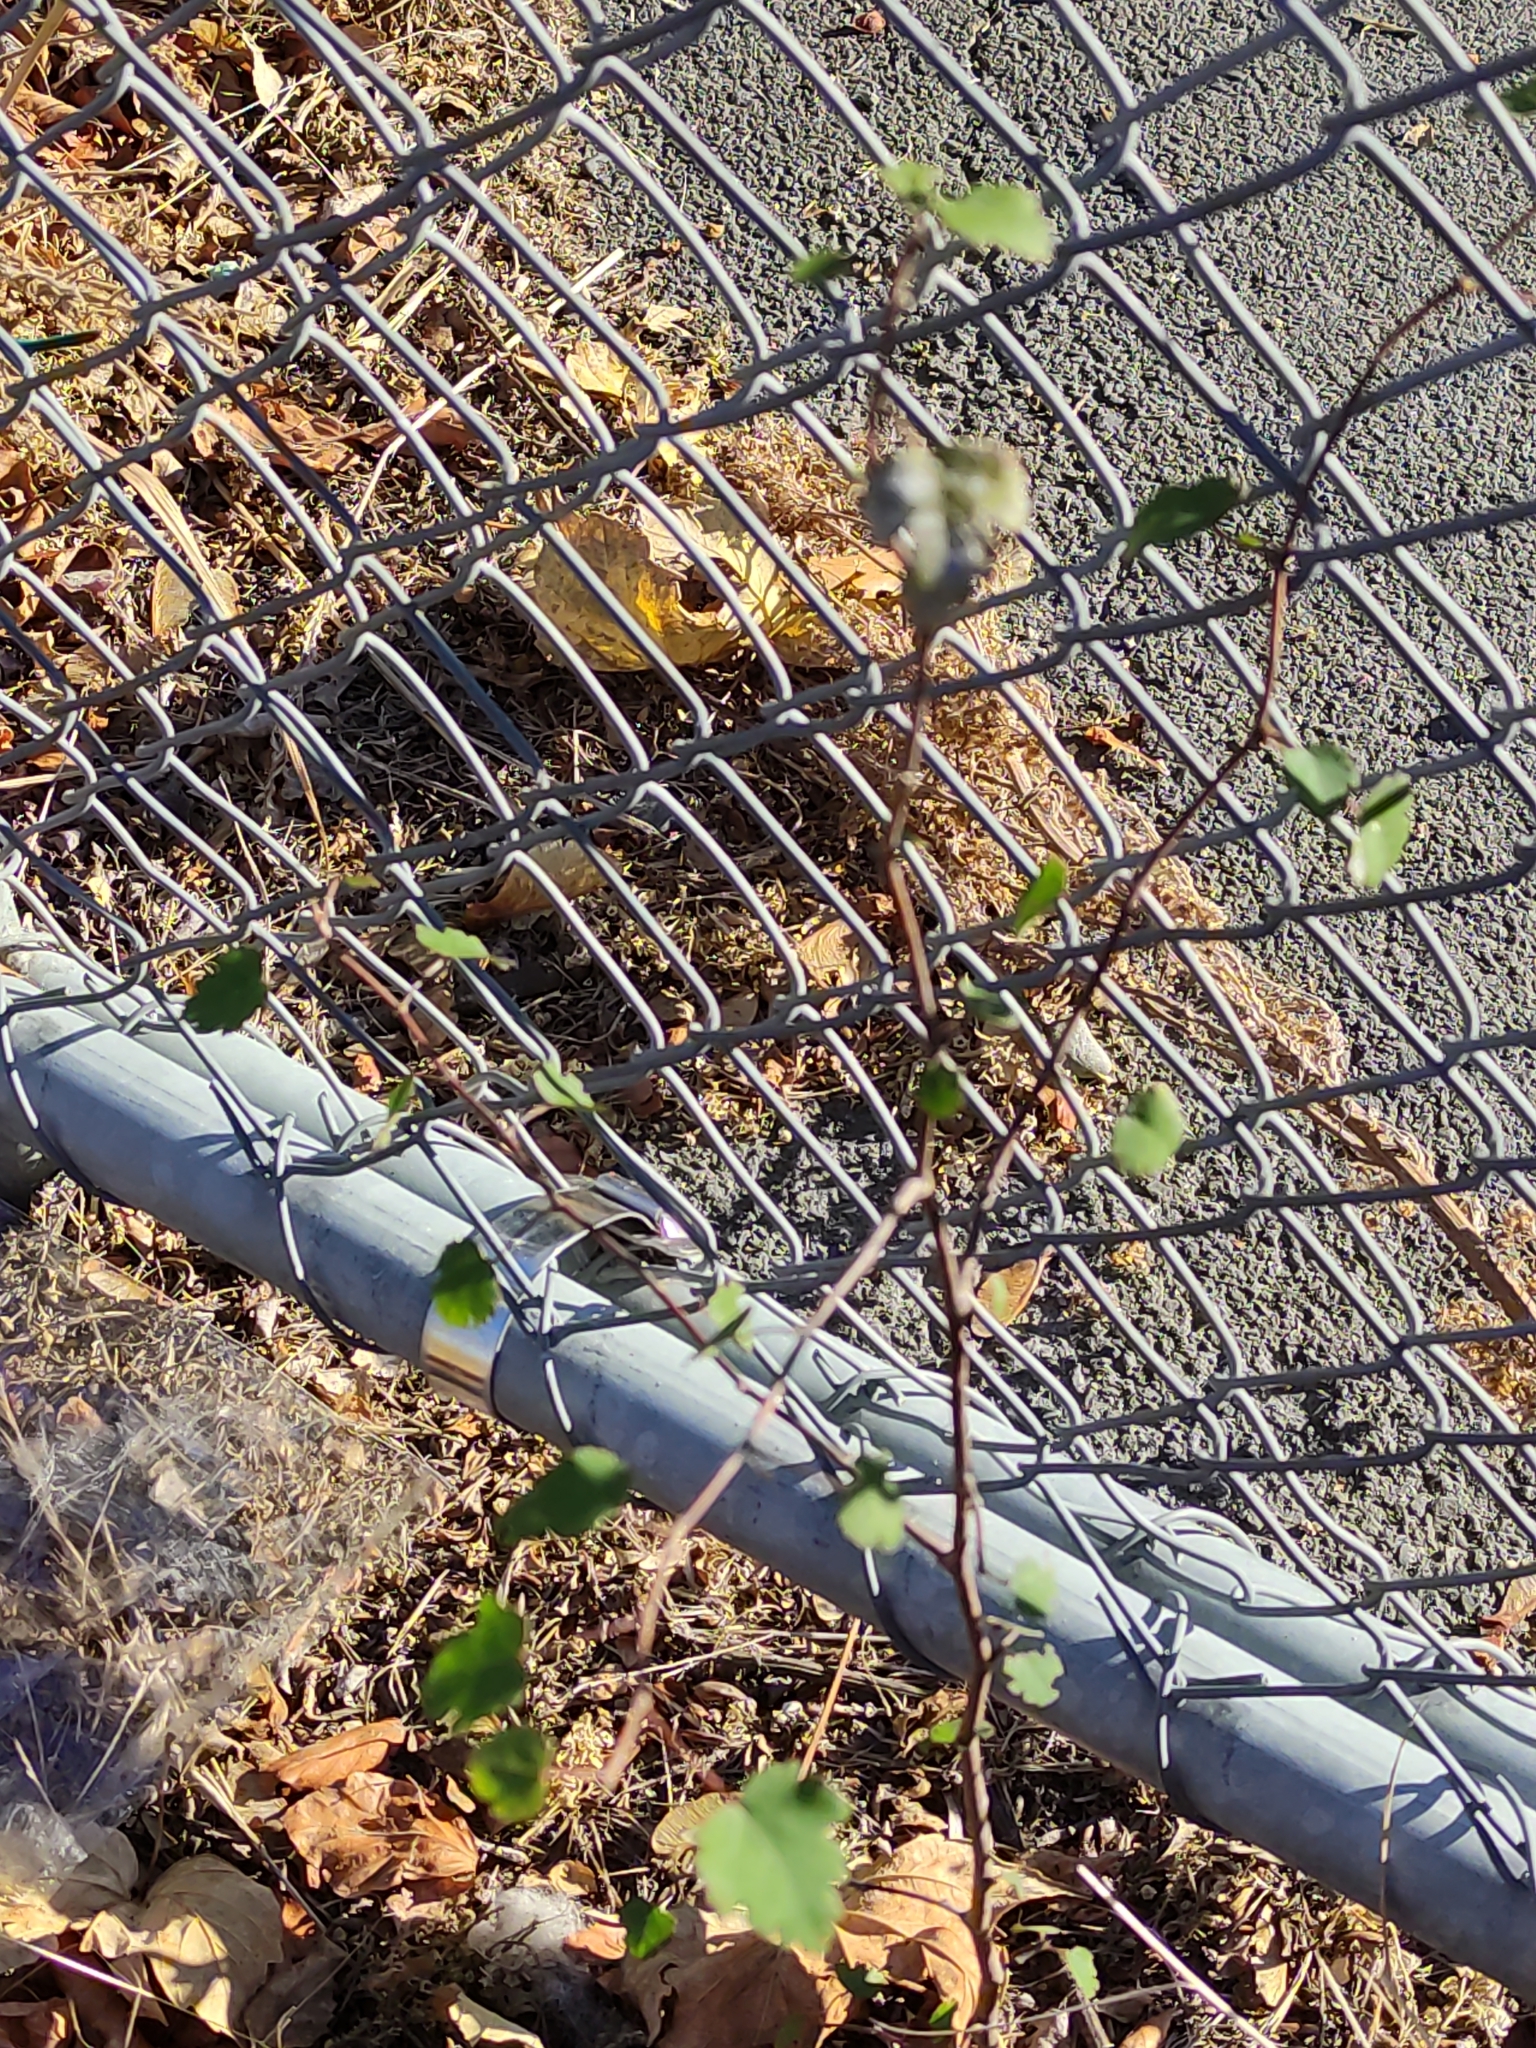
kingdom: Plantae
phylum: Tracheophyta
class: Magnoliopsida
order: Malvales
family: Malvaceae
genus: Plagianthus
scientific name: Plagianthus regius
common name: Manatu
